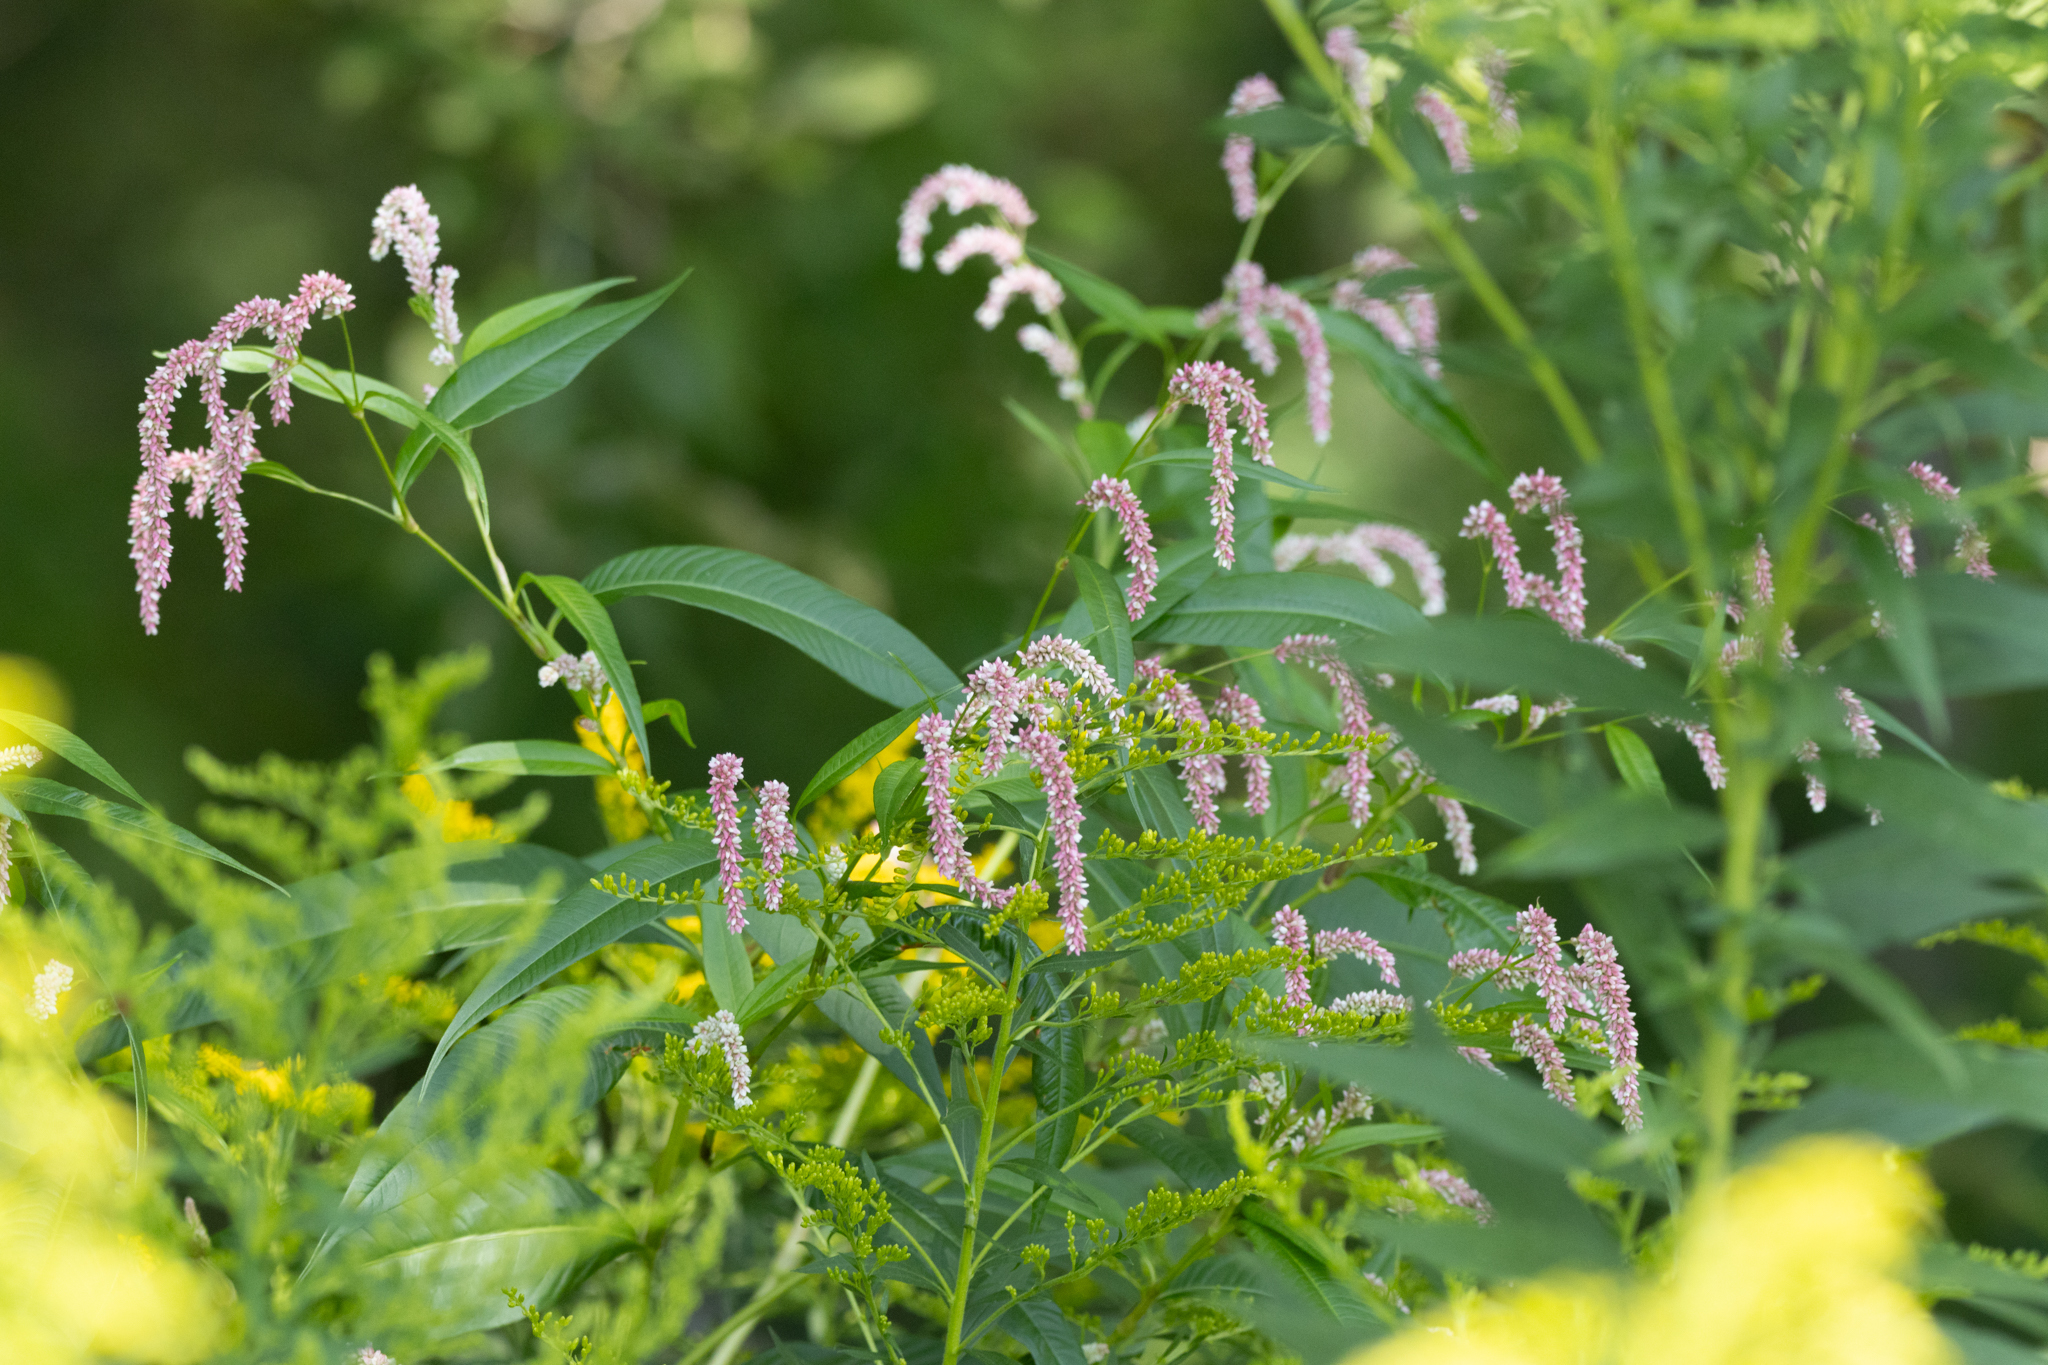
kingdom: Plantae
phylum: Tracheophyta
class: Magnoliopsida
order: Caryophyllales
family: Polygonaceae
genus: Persicaria
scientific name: Persicaria lapathifolia
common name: Curlytop knotweed
